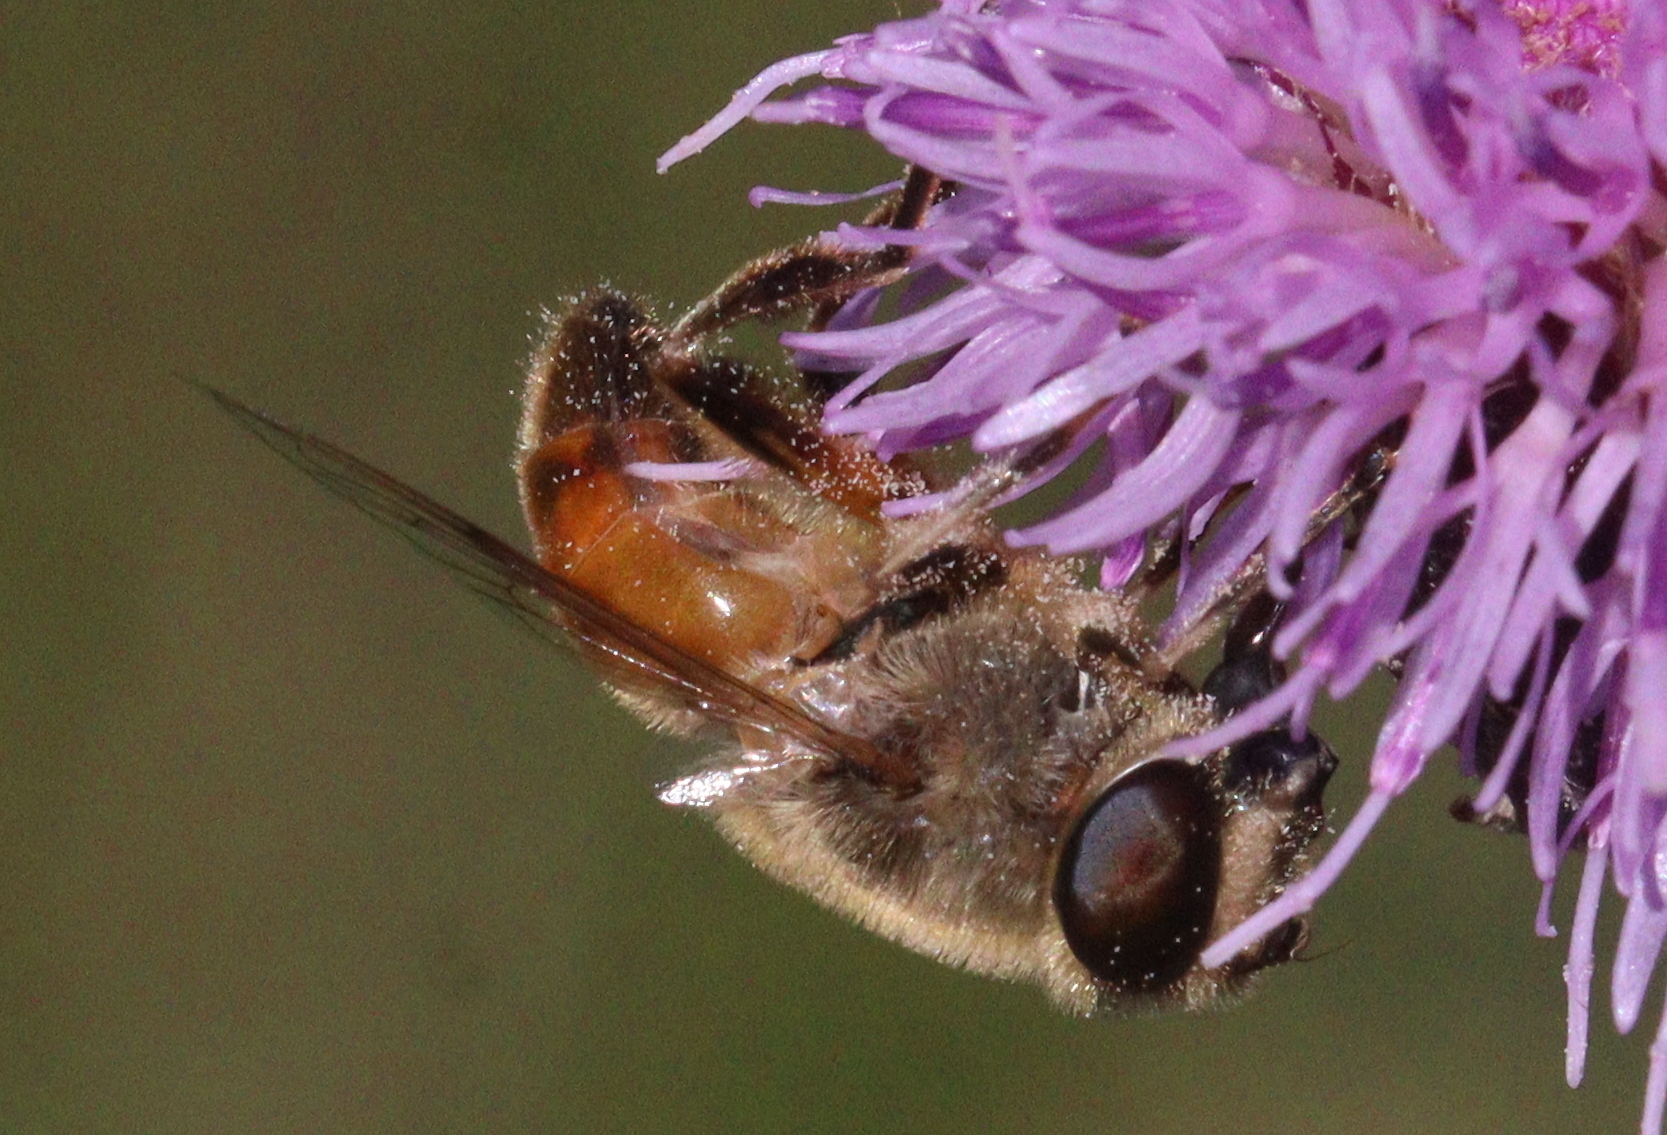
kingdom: Animalia
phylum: Arthropoda
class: Insecta
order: Diptera
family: Syrphidae
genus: Eristalis
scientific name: Eristalis tenax
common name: Drone fly
